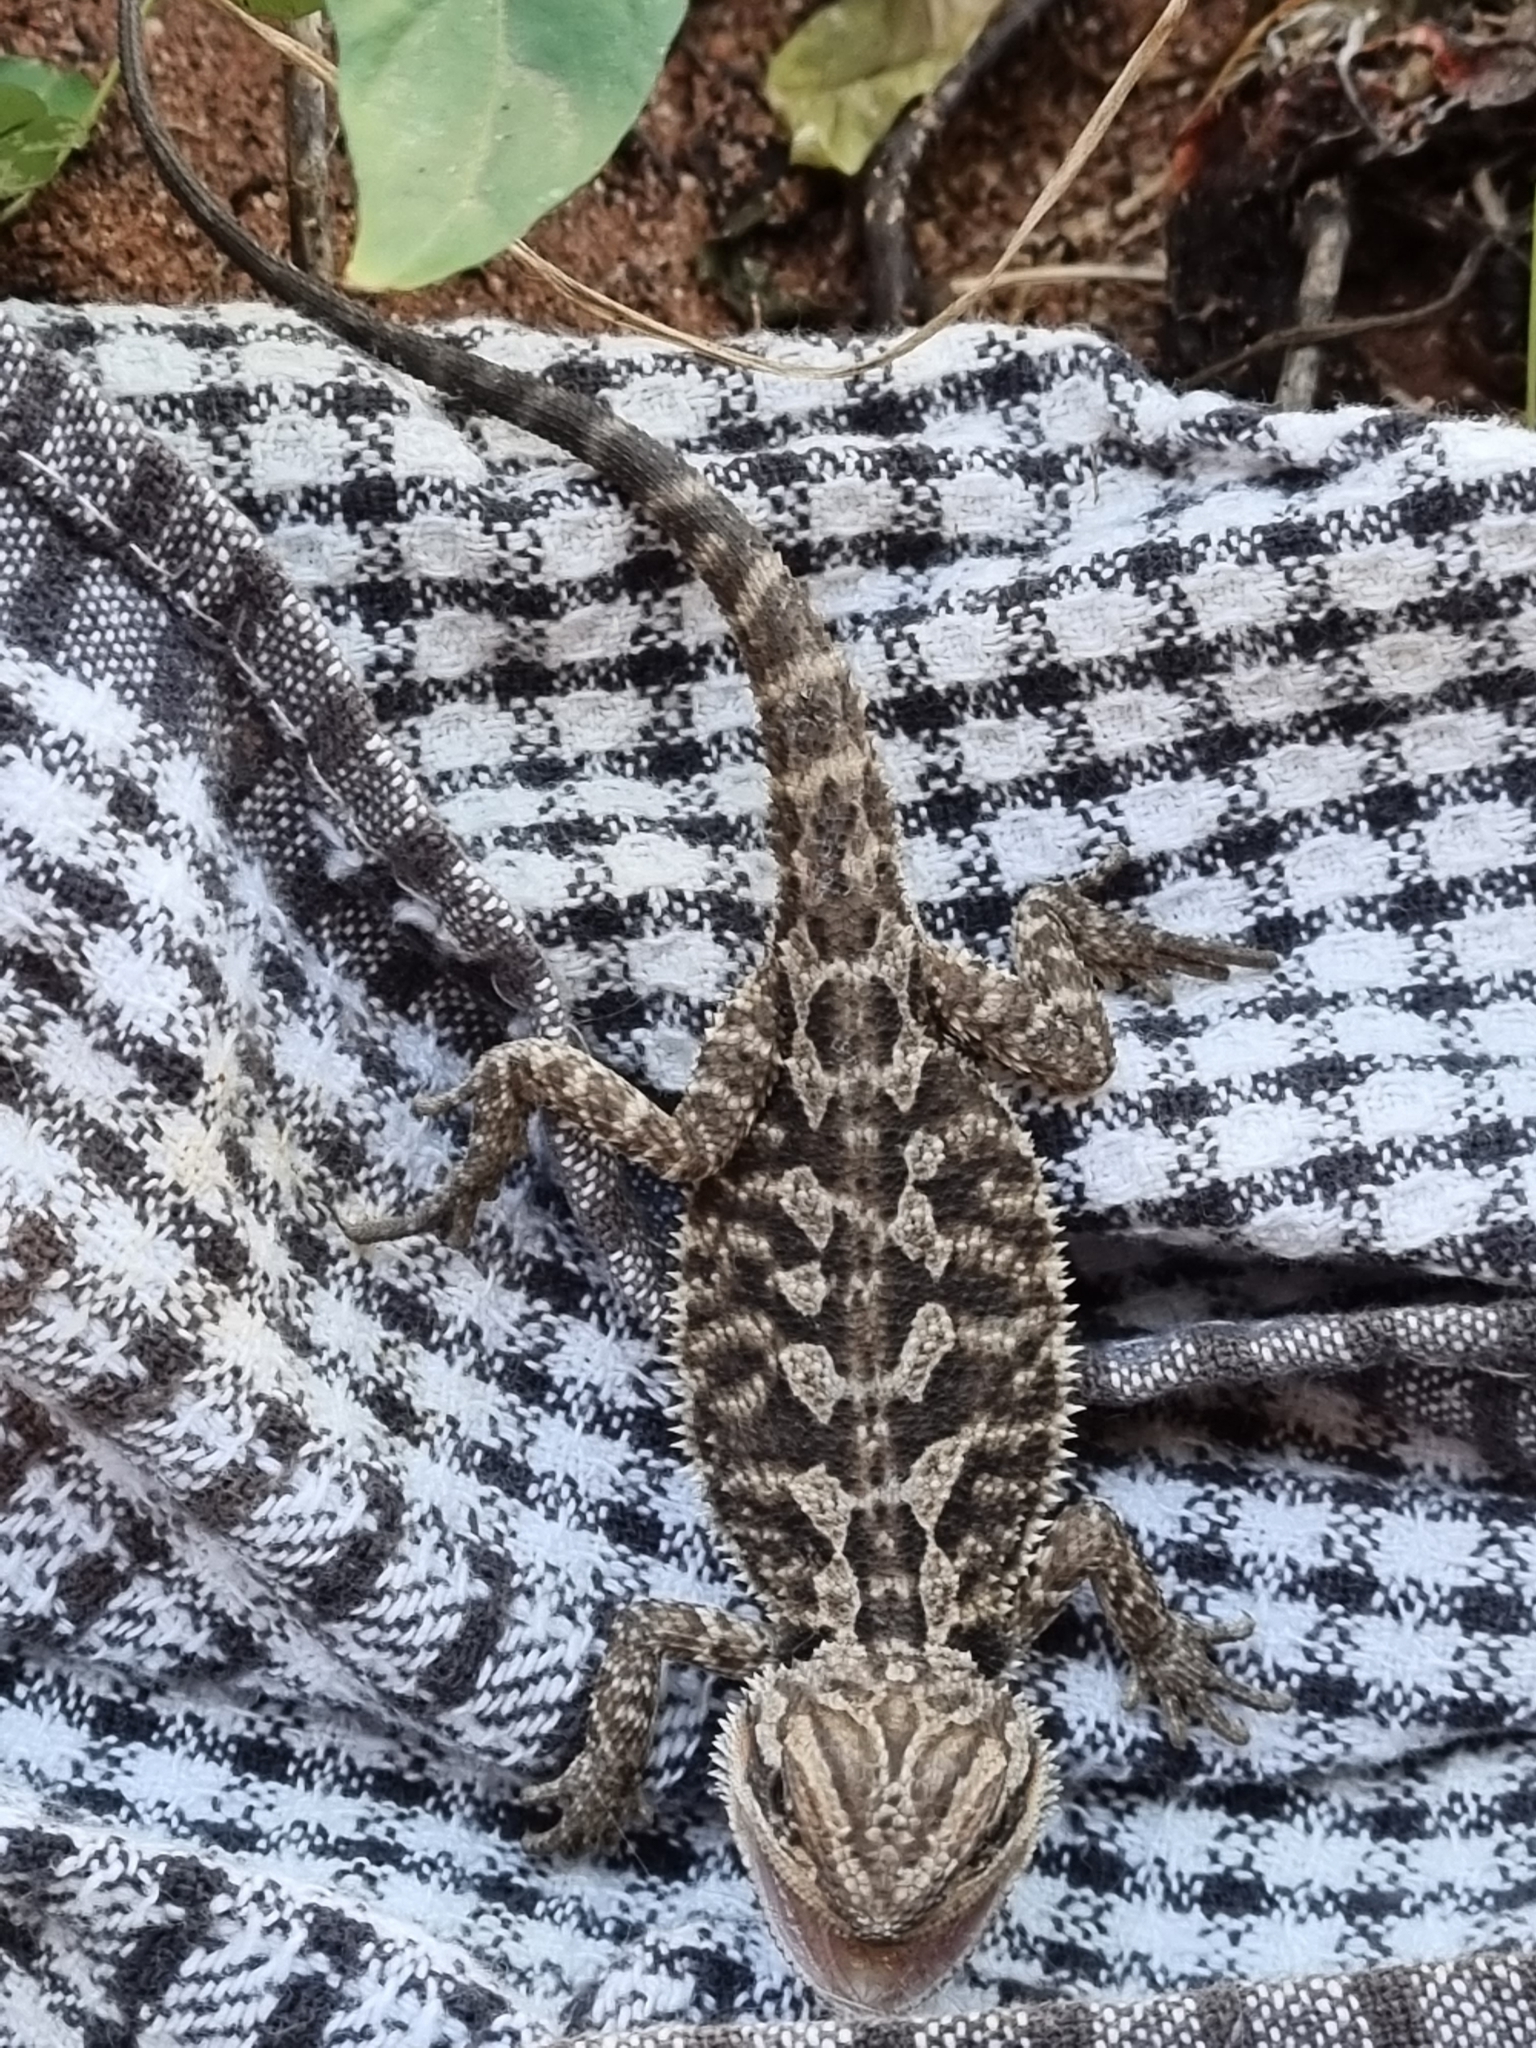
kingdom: Animalia
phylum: Chordata
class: Squamata
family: Agamidae
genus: Pogona
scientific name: Pogona vitticeps
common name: Central bearded dragon
